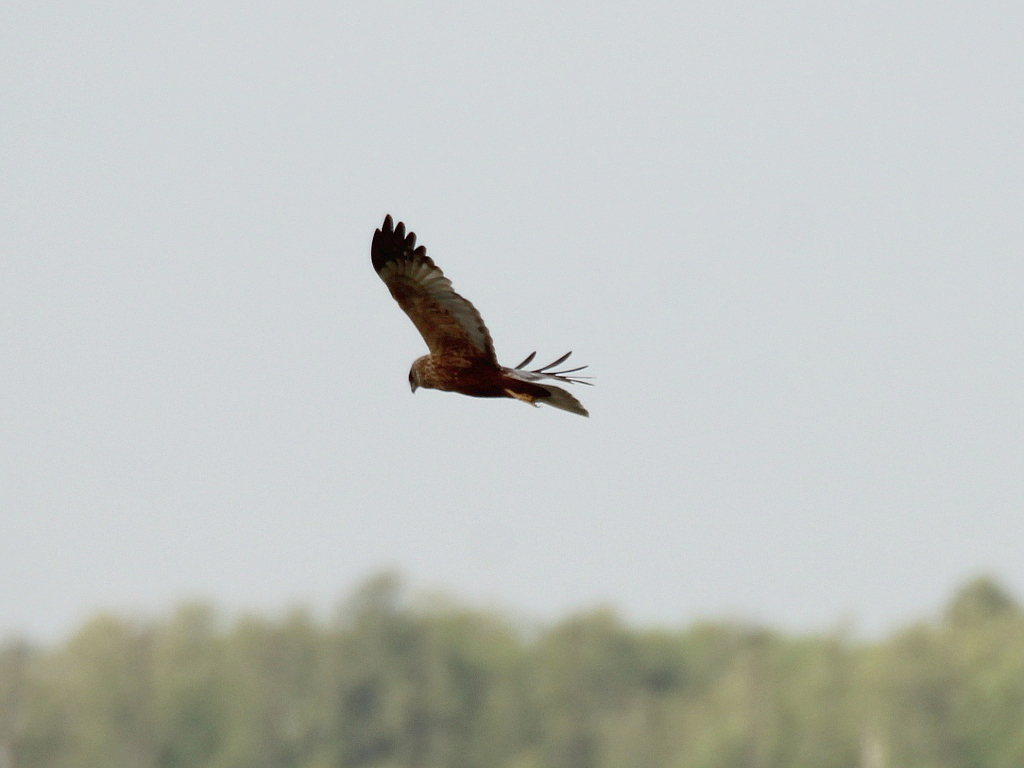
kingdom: Animalia
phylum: Chordata
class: Aves
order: Accipitriformes
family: Accipitridae
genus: Circus
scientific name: Circus aeruginosus
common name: Western marsh harrier
